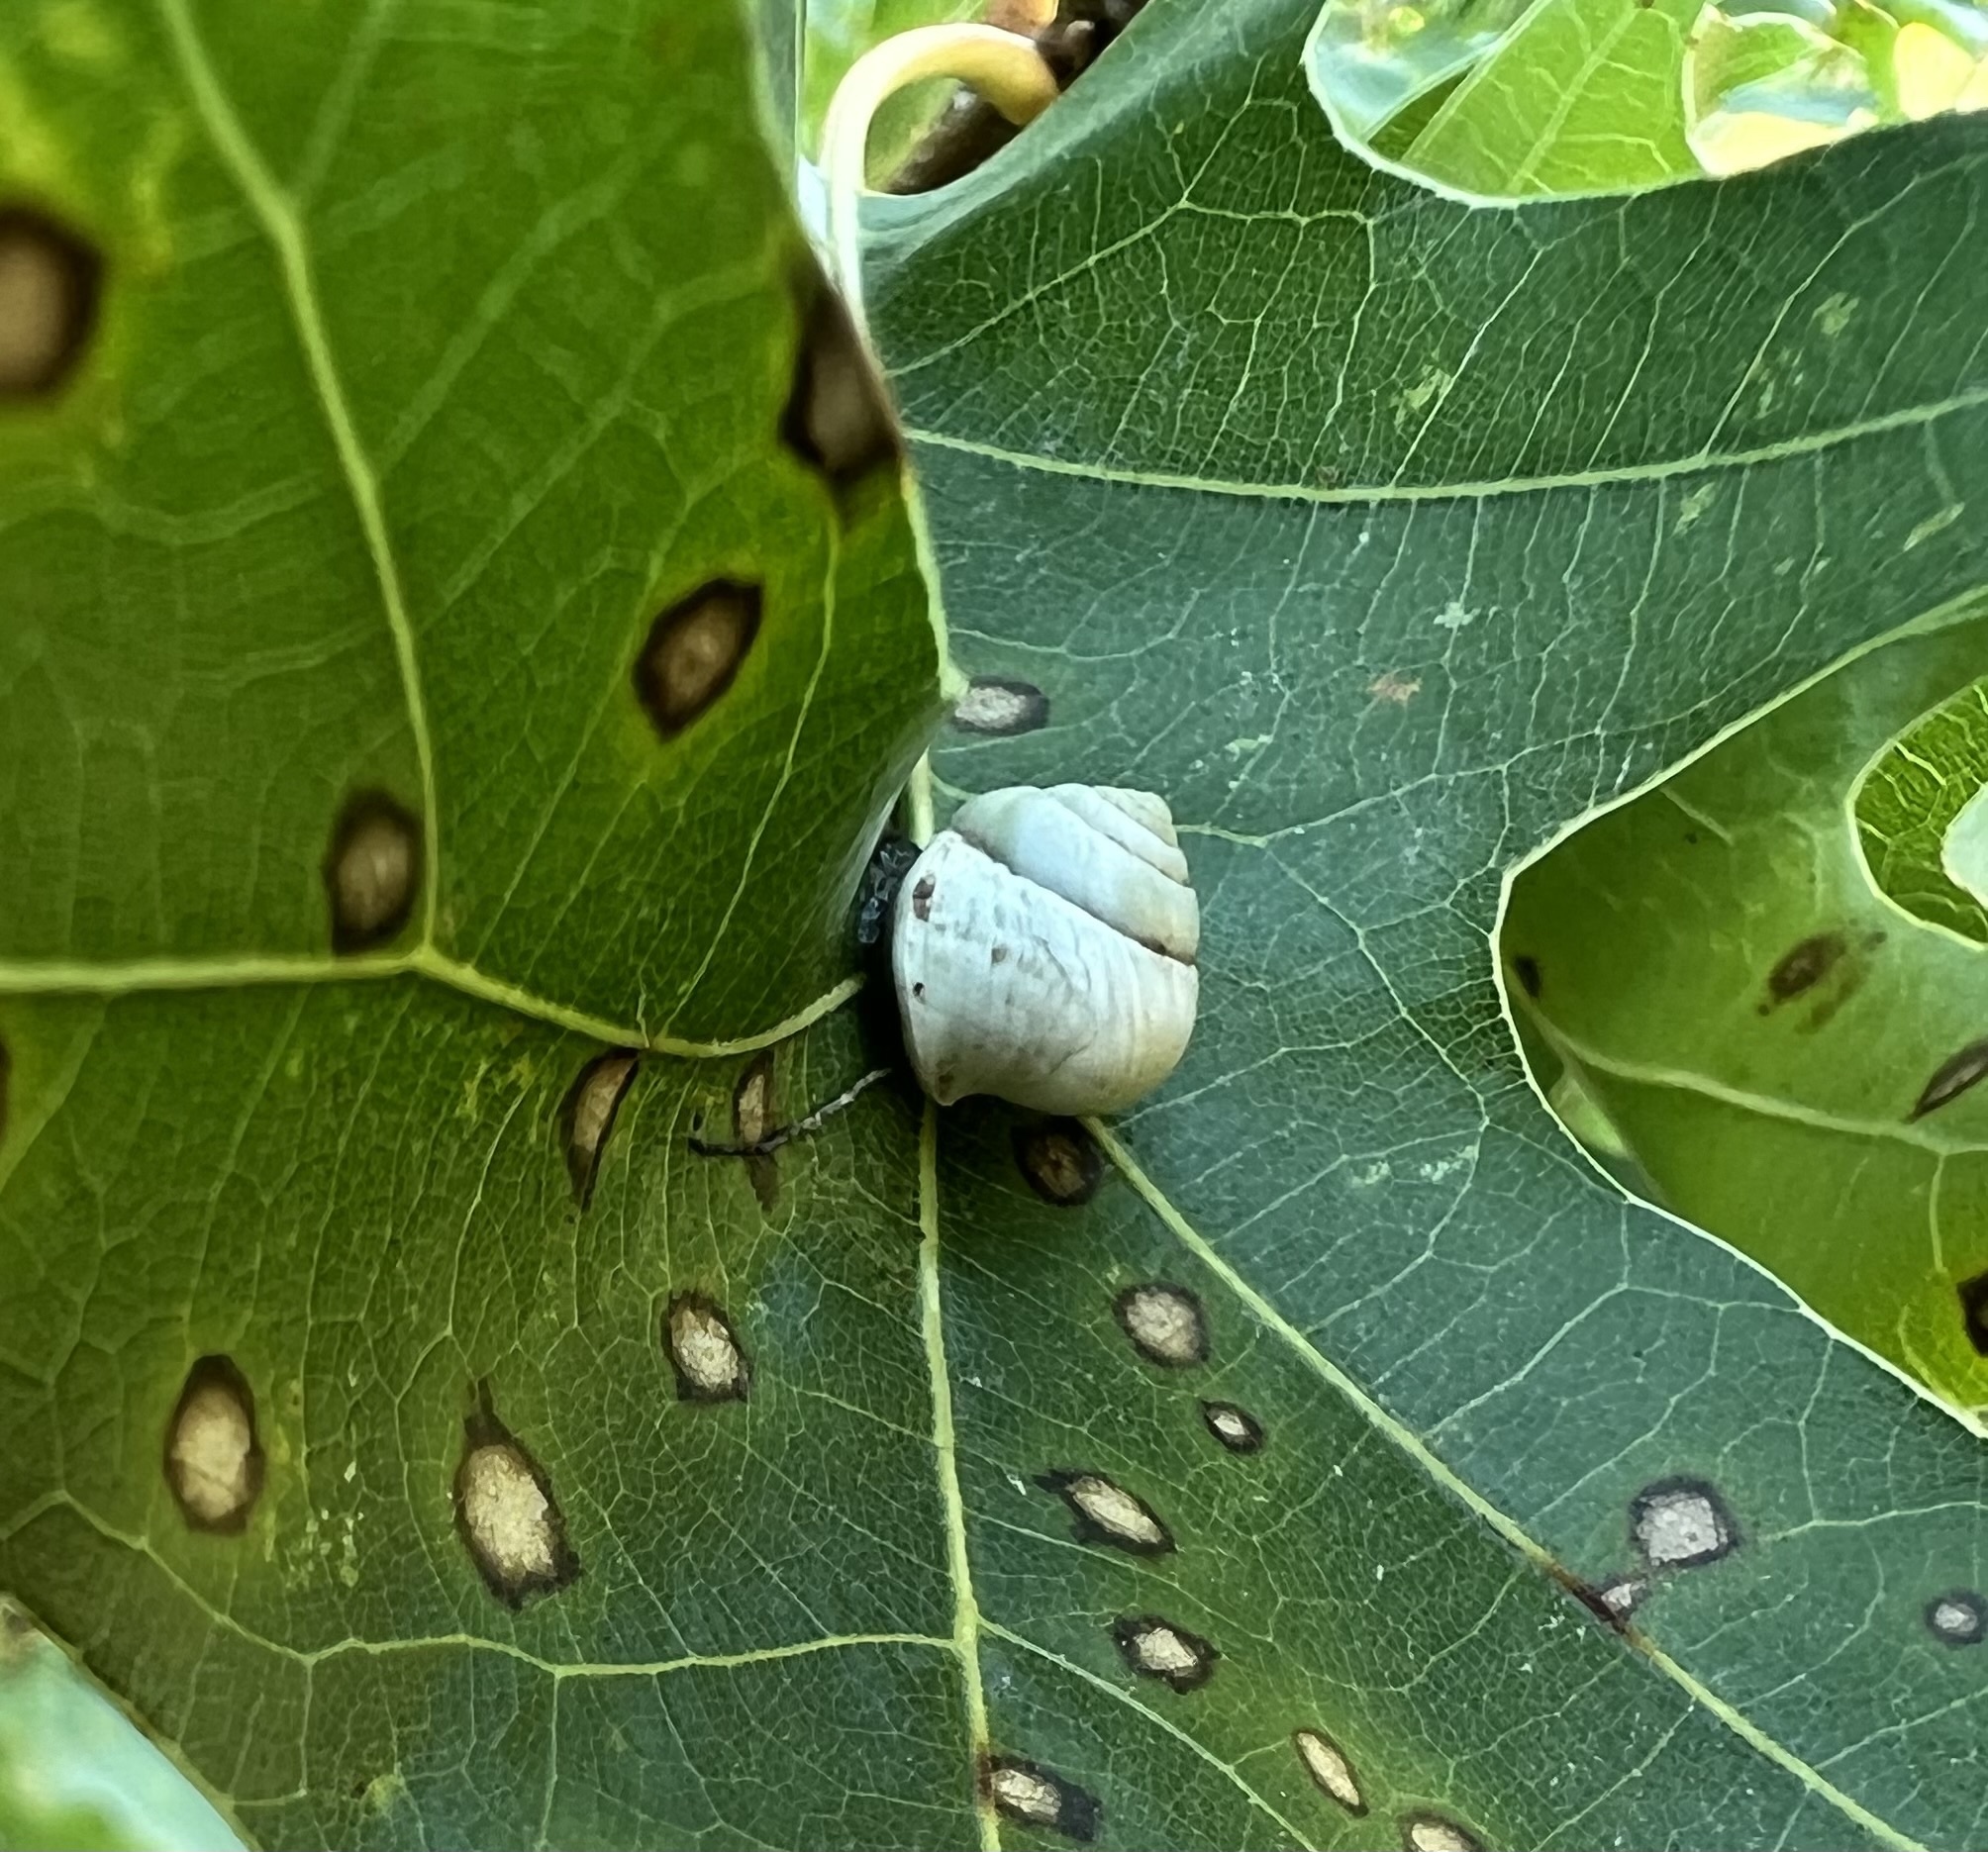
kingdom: Animalia
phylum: Mollusca
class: Gastropoda
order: Cycloneritida
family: Helicinidae
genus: Helicina
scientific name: Helicina orbiculata
